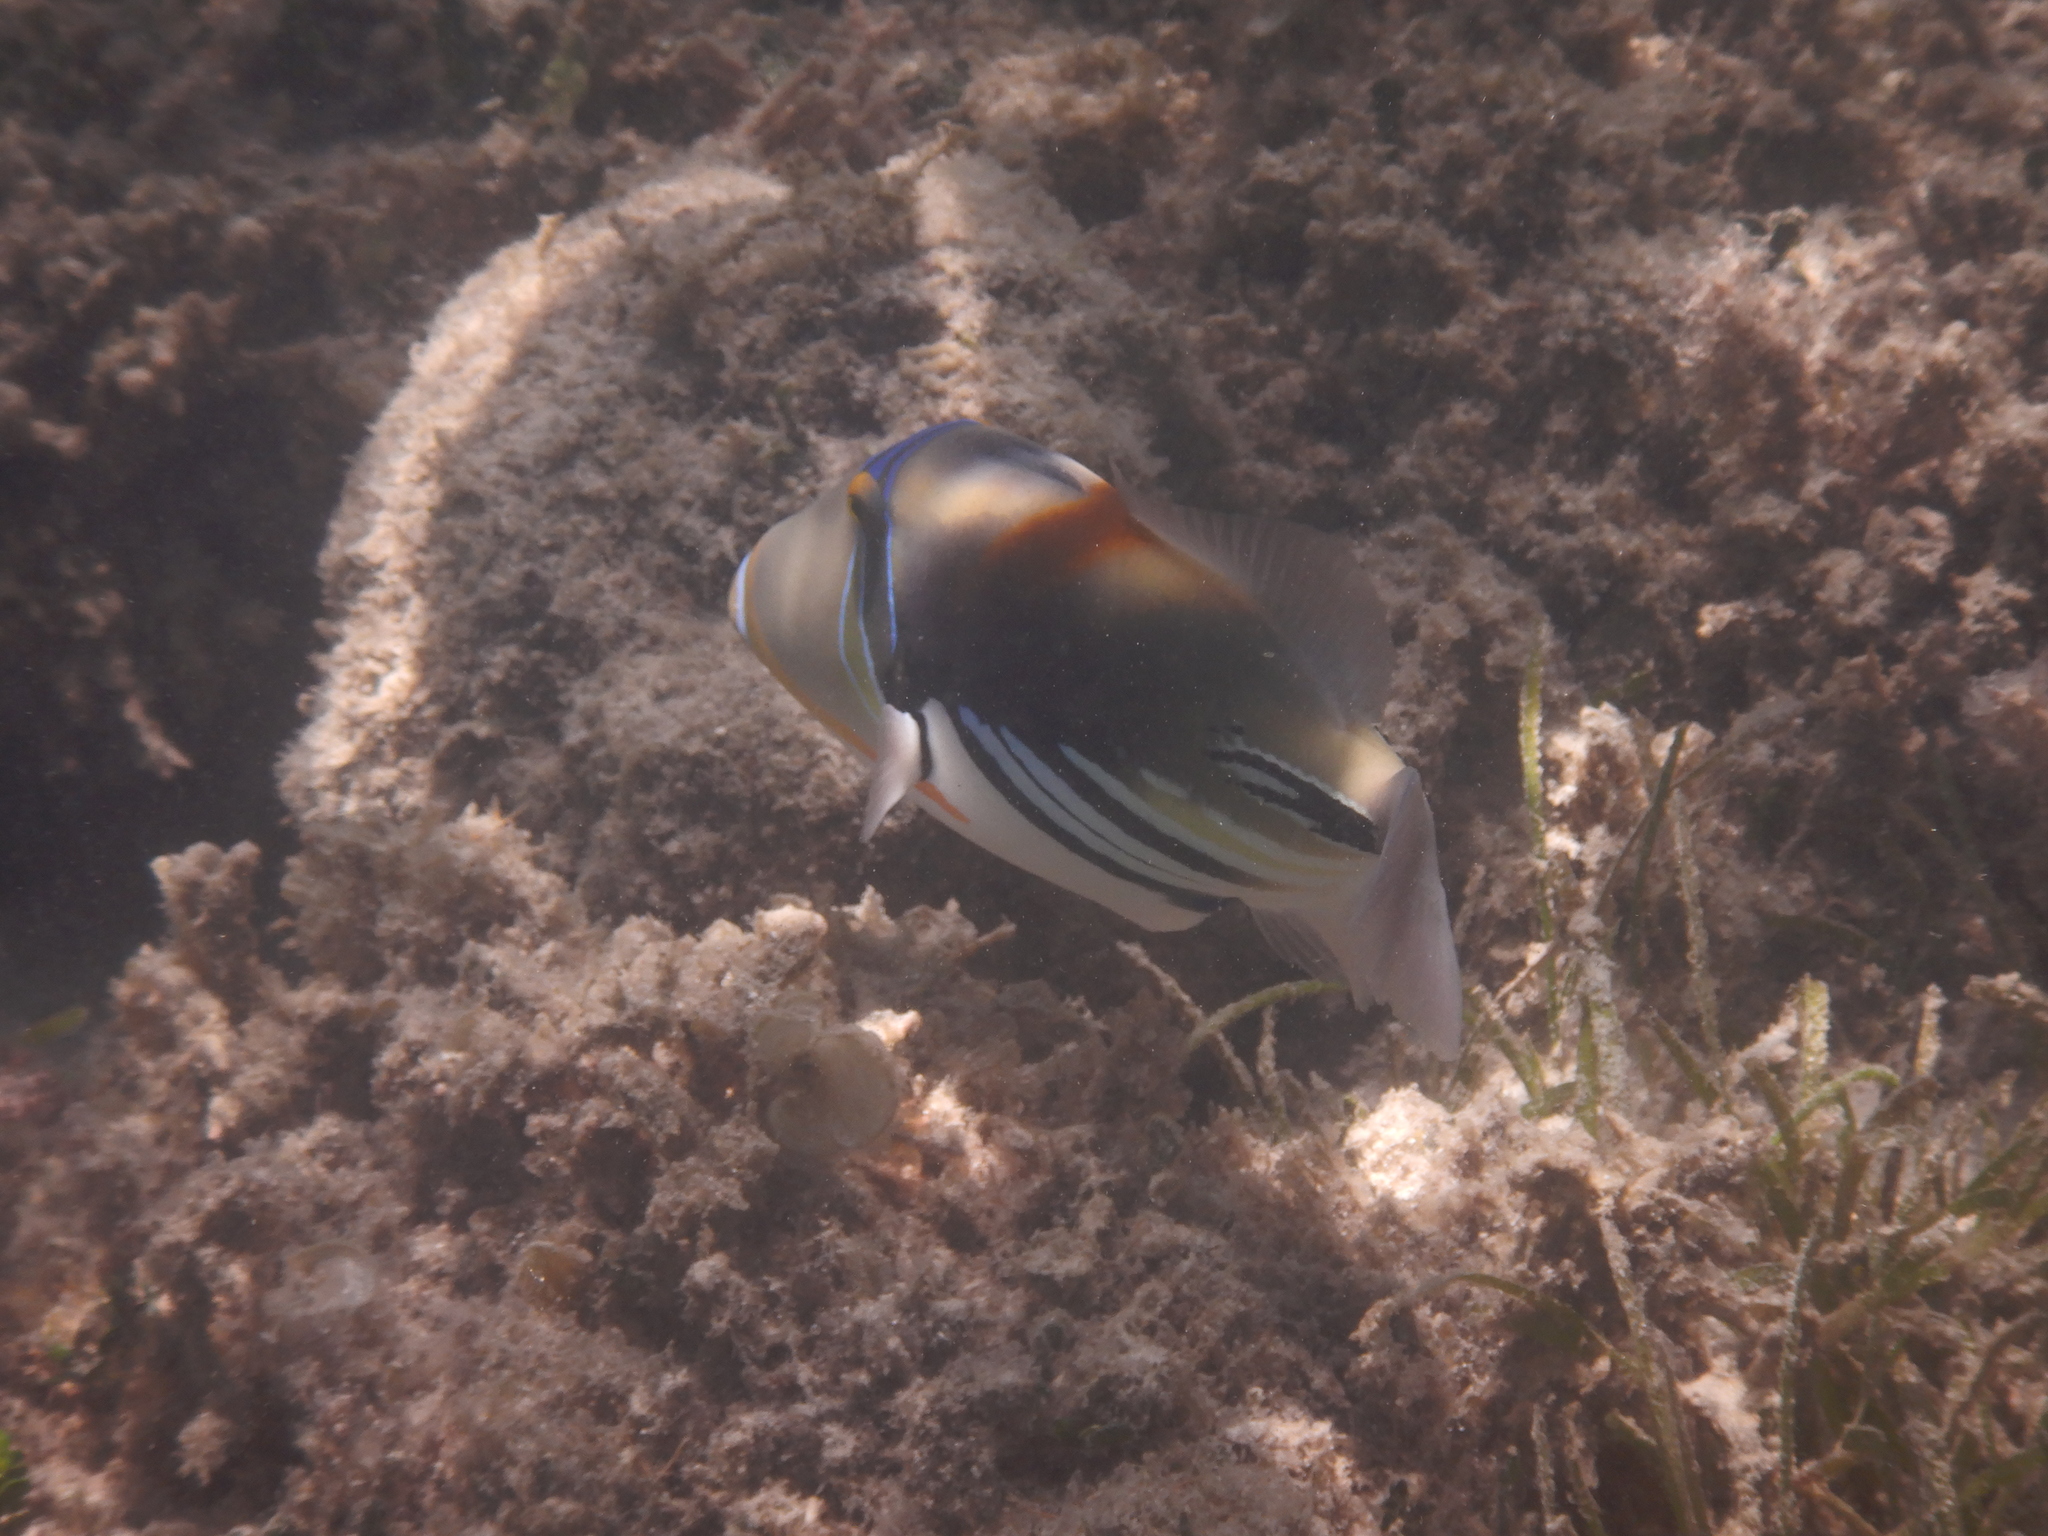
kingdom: Animalia
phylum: Chordata
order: Tetraodontiformes
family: Balistidae
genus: Rhinecanthus
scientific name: Rhinecanthus aculeatus
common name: White-banded triggerfish
